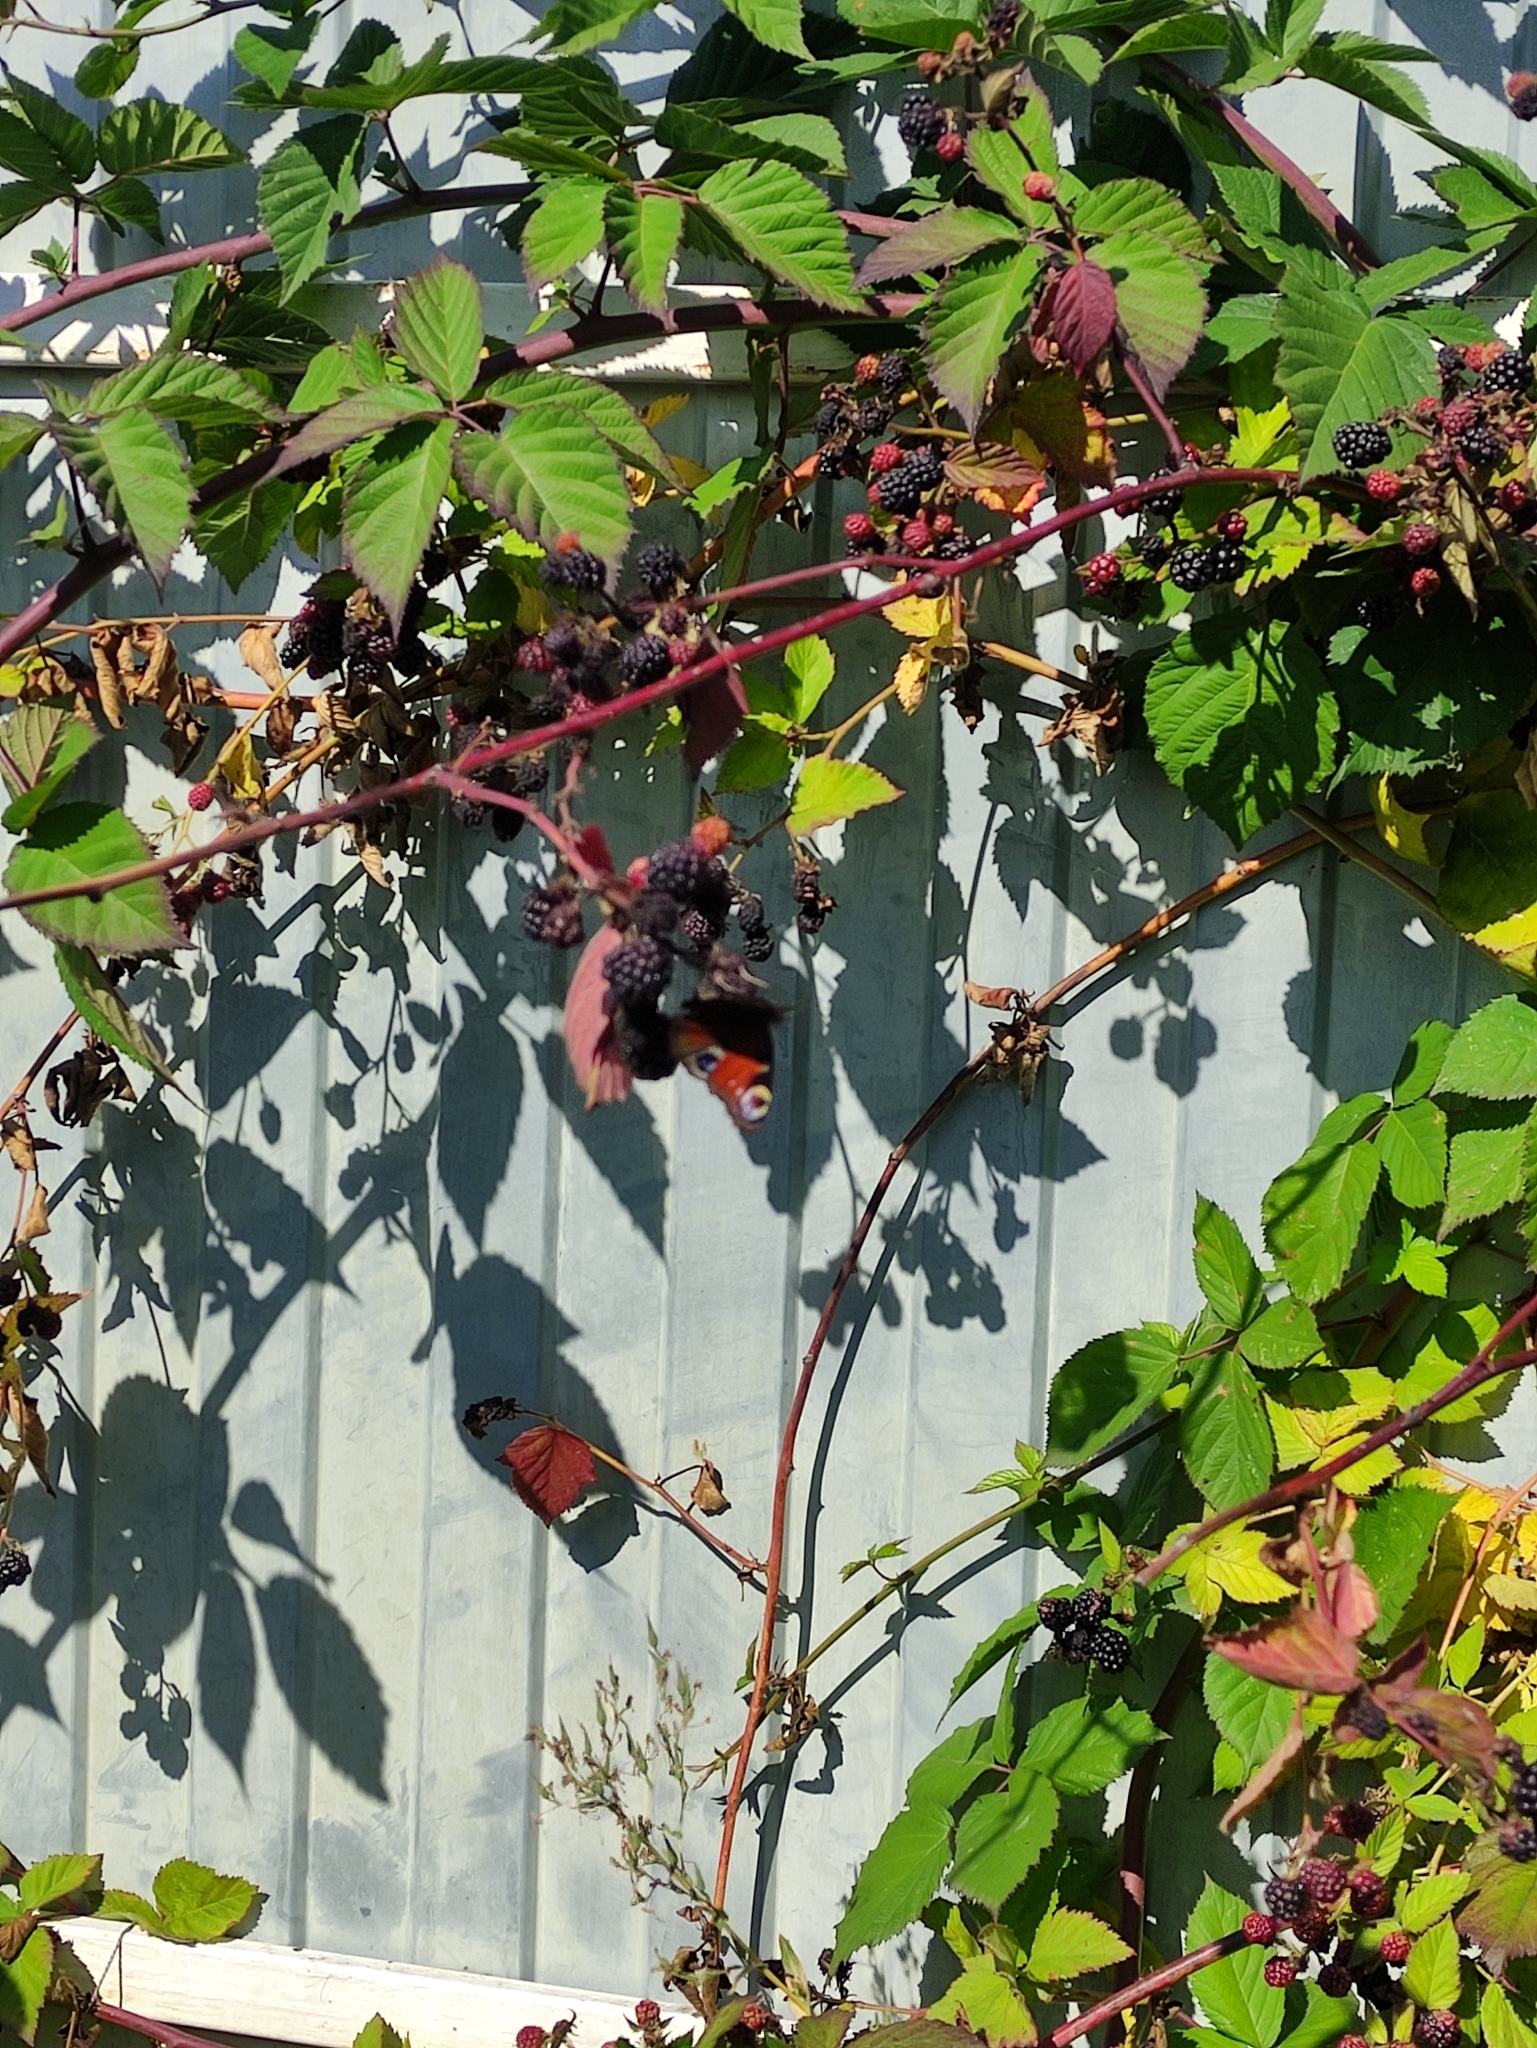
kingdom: Animalia
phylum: Arthropoda
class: Insecta
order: Lepidoptera
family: Nymphalidae
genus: Aglais
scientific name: Aglais io
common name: Peacock
